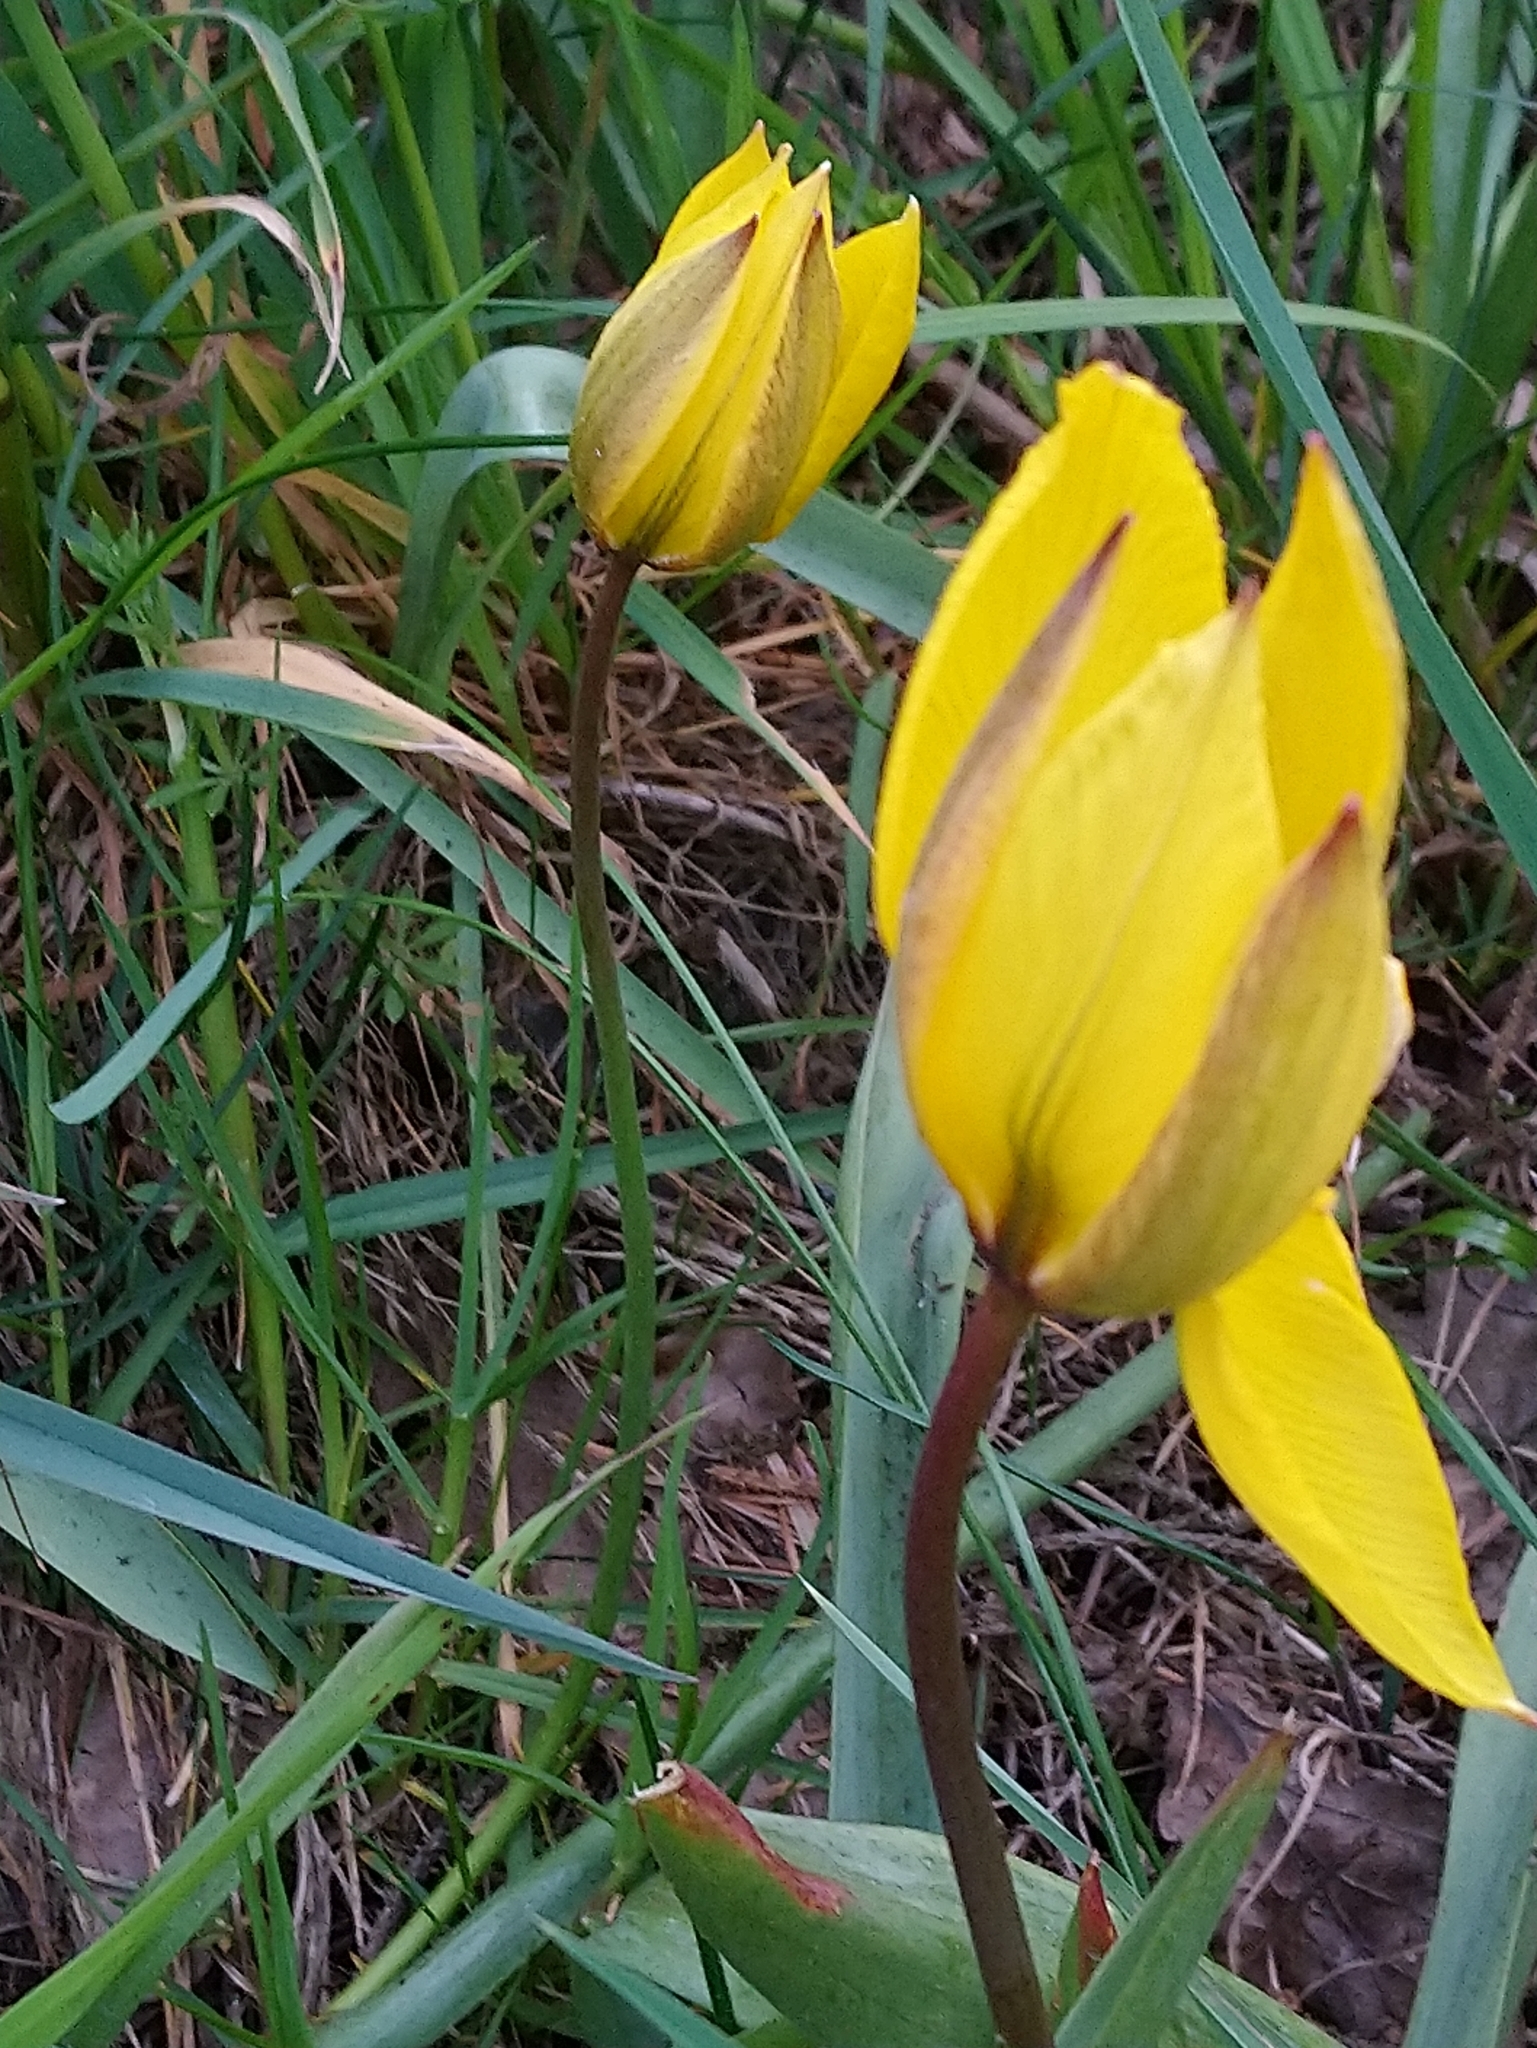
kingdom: Plantae
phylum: Tracheophyta
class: Liliopsida
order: Liliales
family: Liliaceae
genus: Tulipa
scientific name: Tulipa sylvestris
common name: Wild tulip
